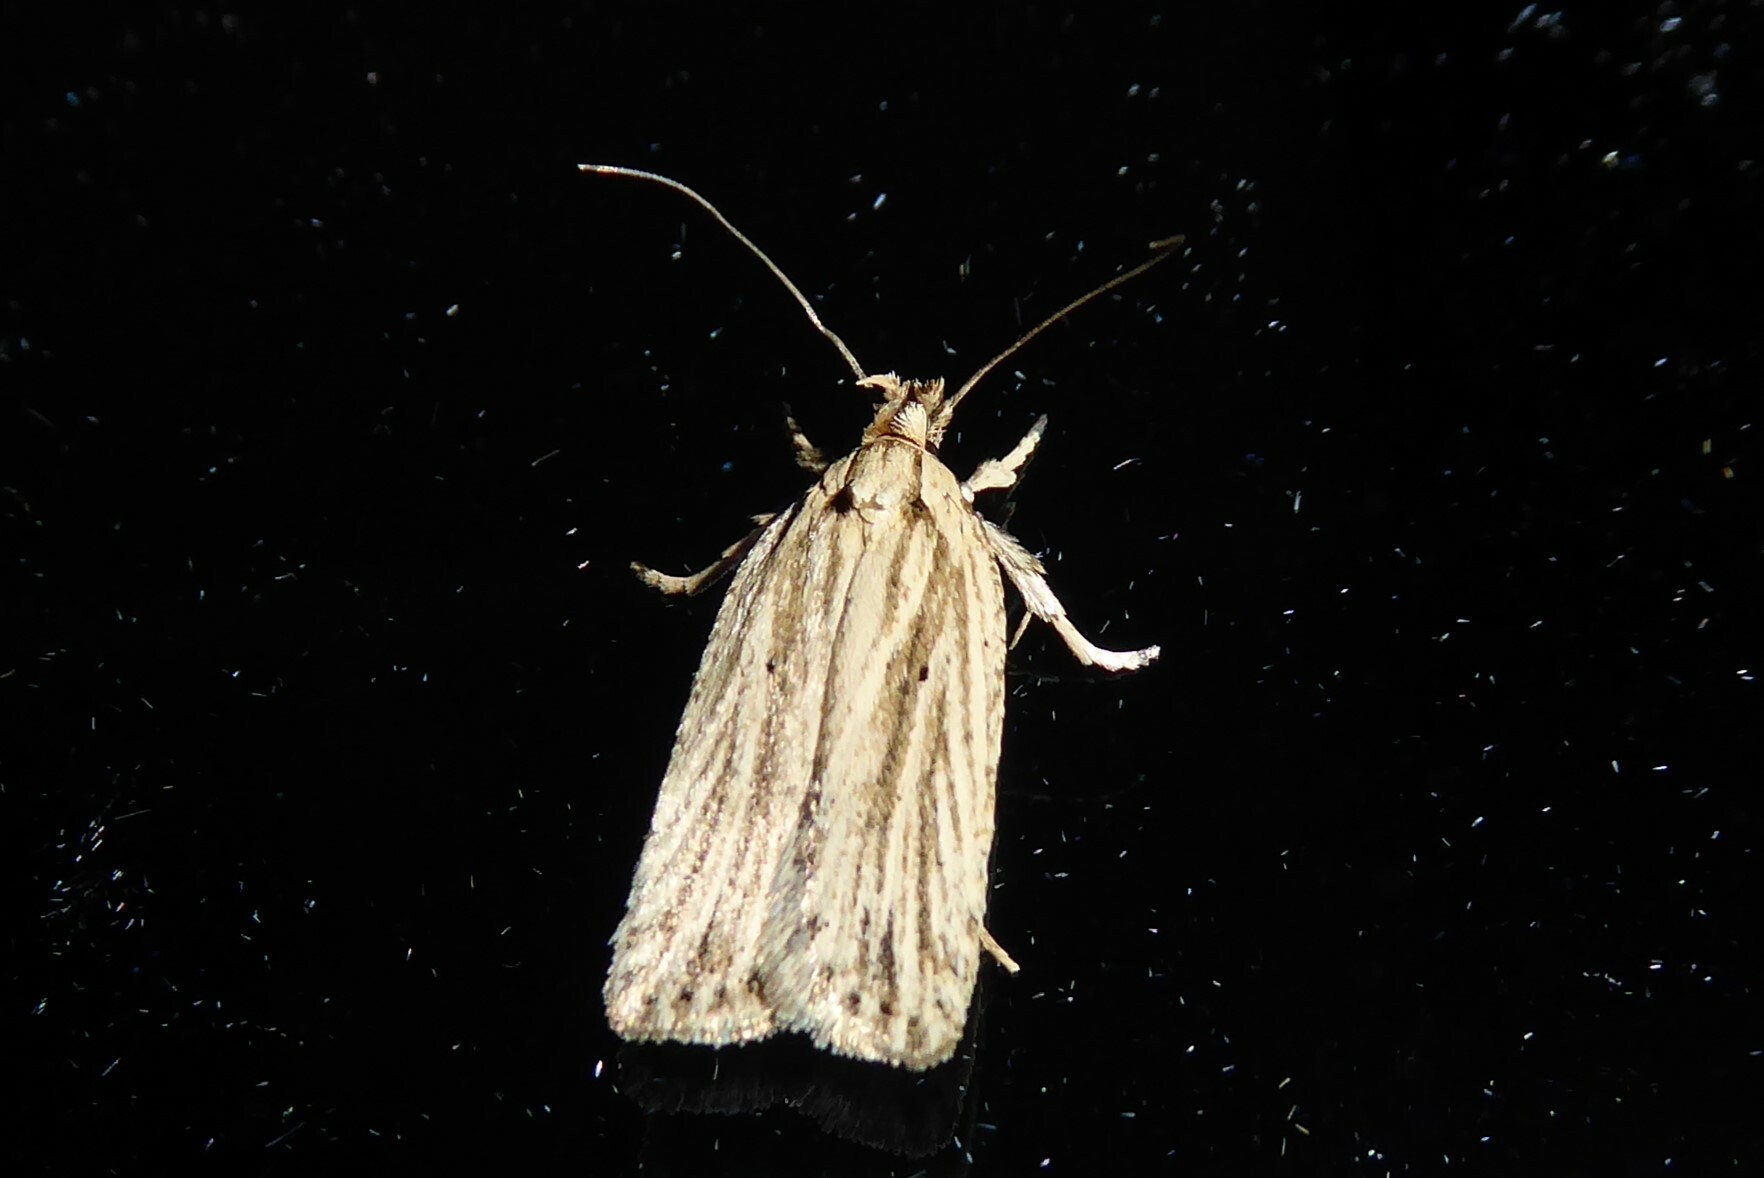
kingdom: Animalia
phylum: Arthropoda
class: Insecta
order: Lepidoptera
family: Depressariidae
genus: Agonopterix
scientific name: Agonopterix
